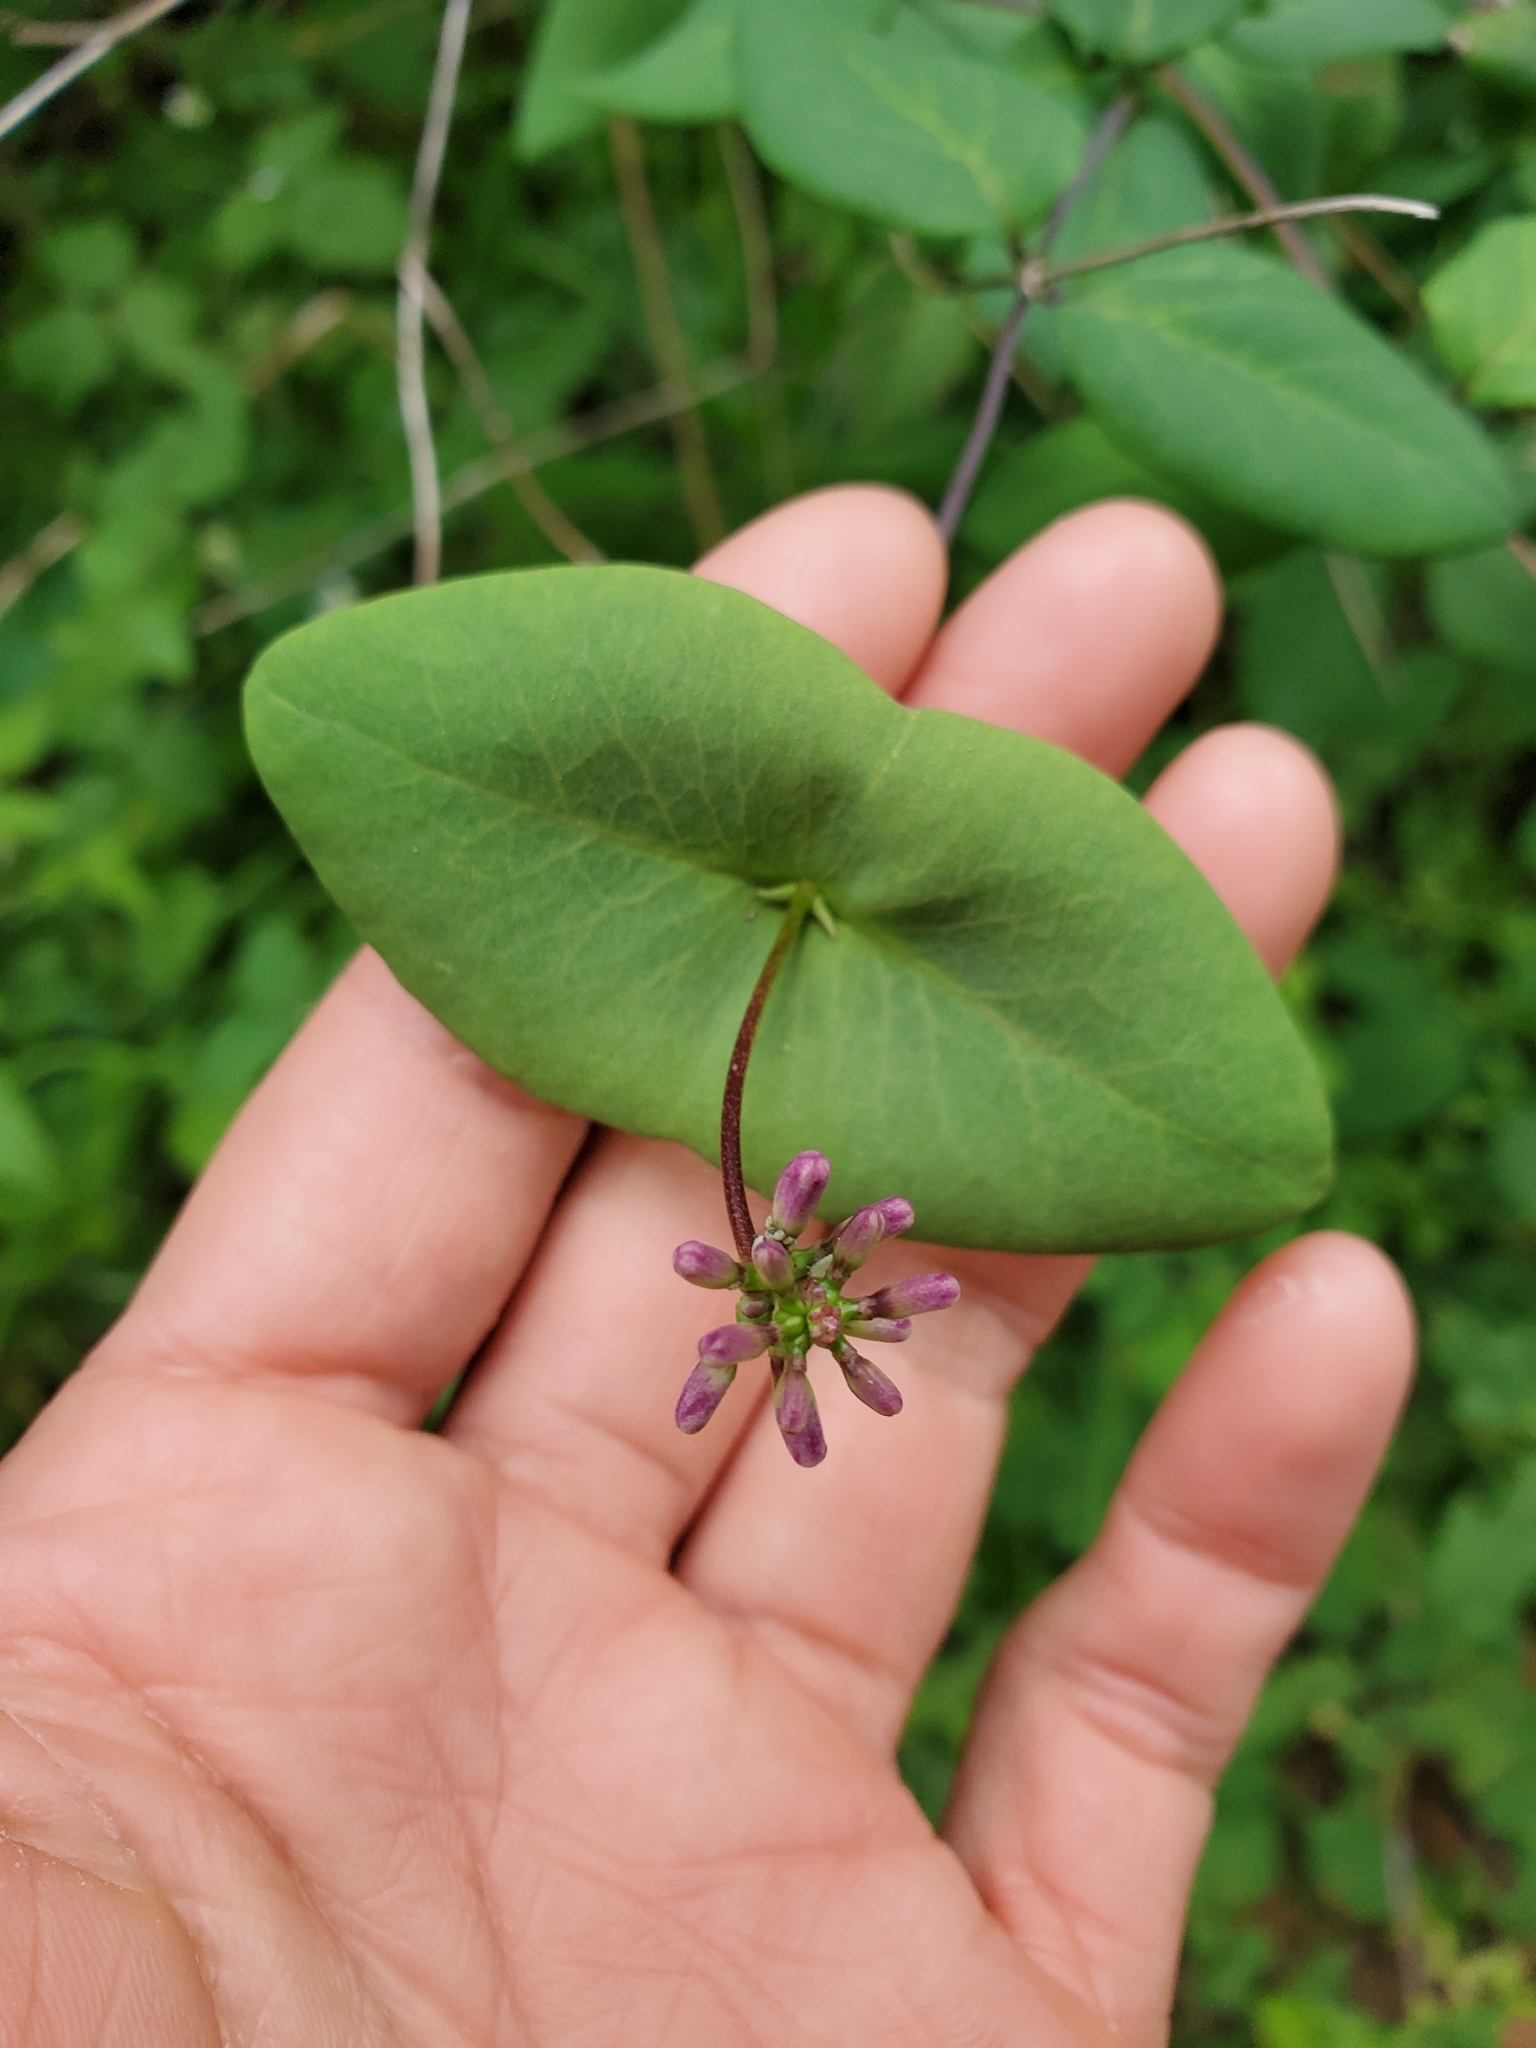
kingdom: Plantae
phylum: Tracheophyta
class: Magnoliopsida
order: Dipsacales
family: Caprifoliaceae
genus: Lonicera
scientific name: Lonicera hispidula
